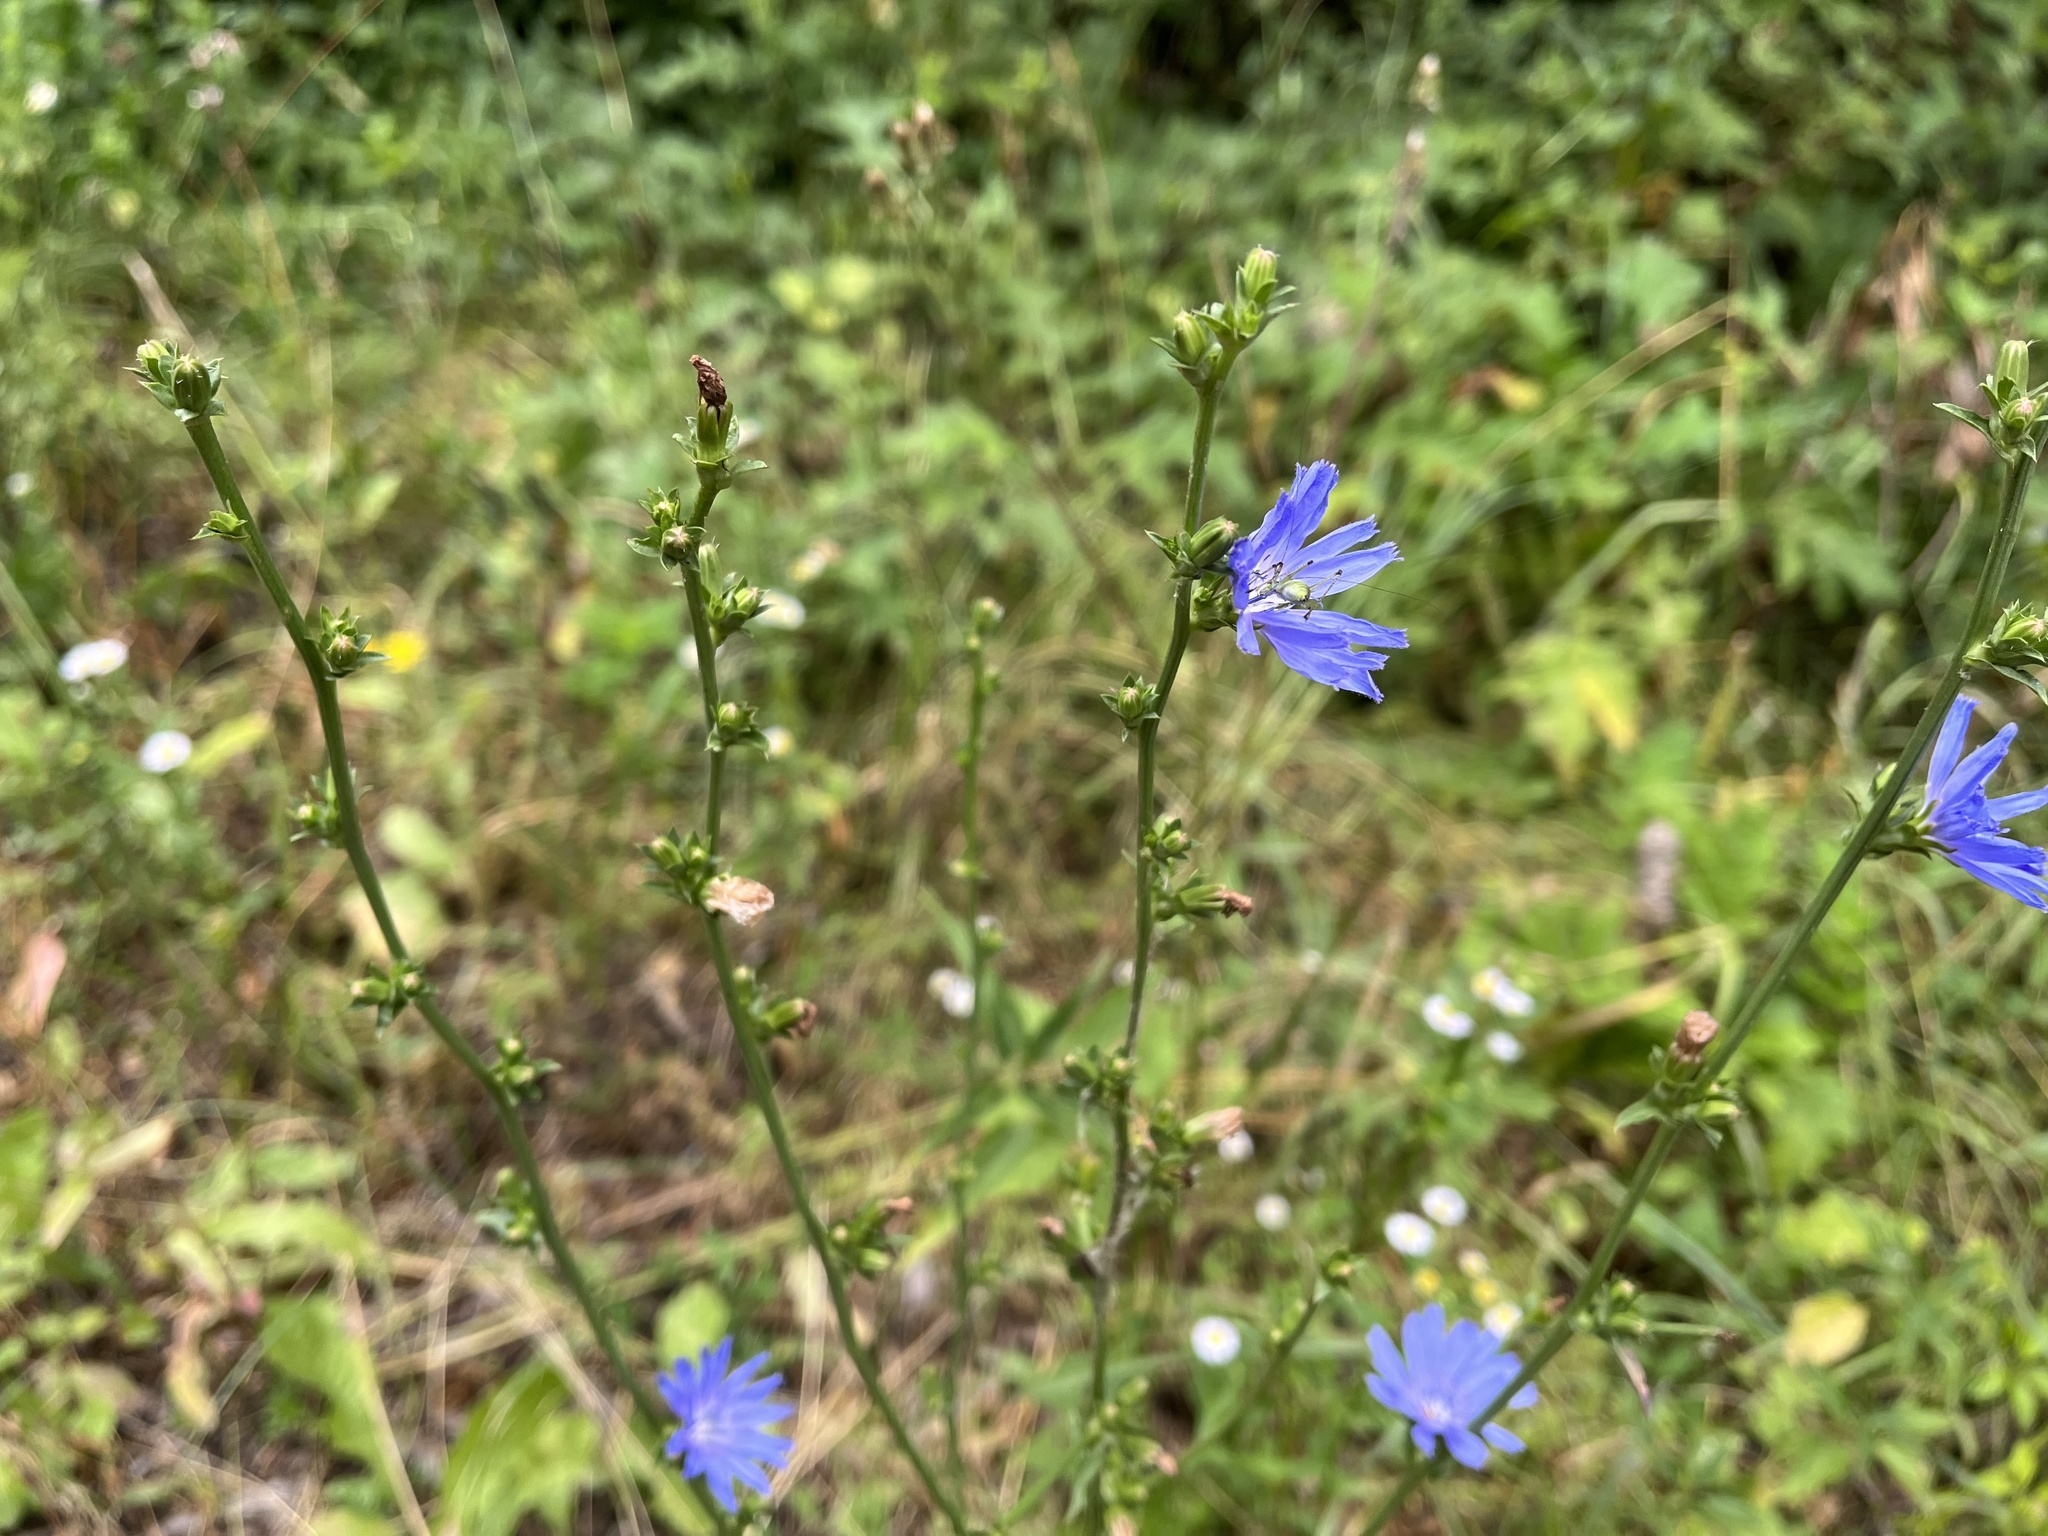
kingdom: Plantae
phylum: Tracheophyta
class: Magnoliopsida
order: Asterales
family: Asteraceae
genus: Cichorium
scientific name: Cichorium intybus
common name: Chicory
